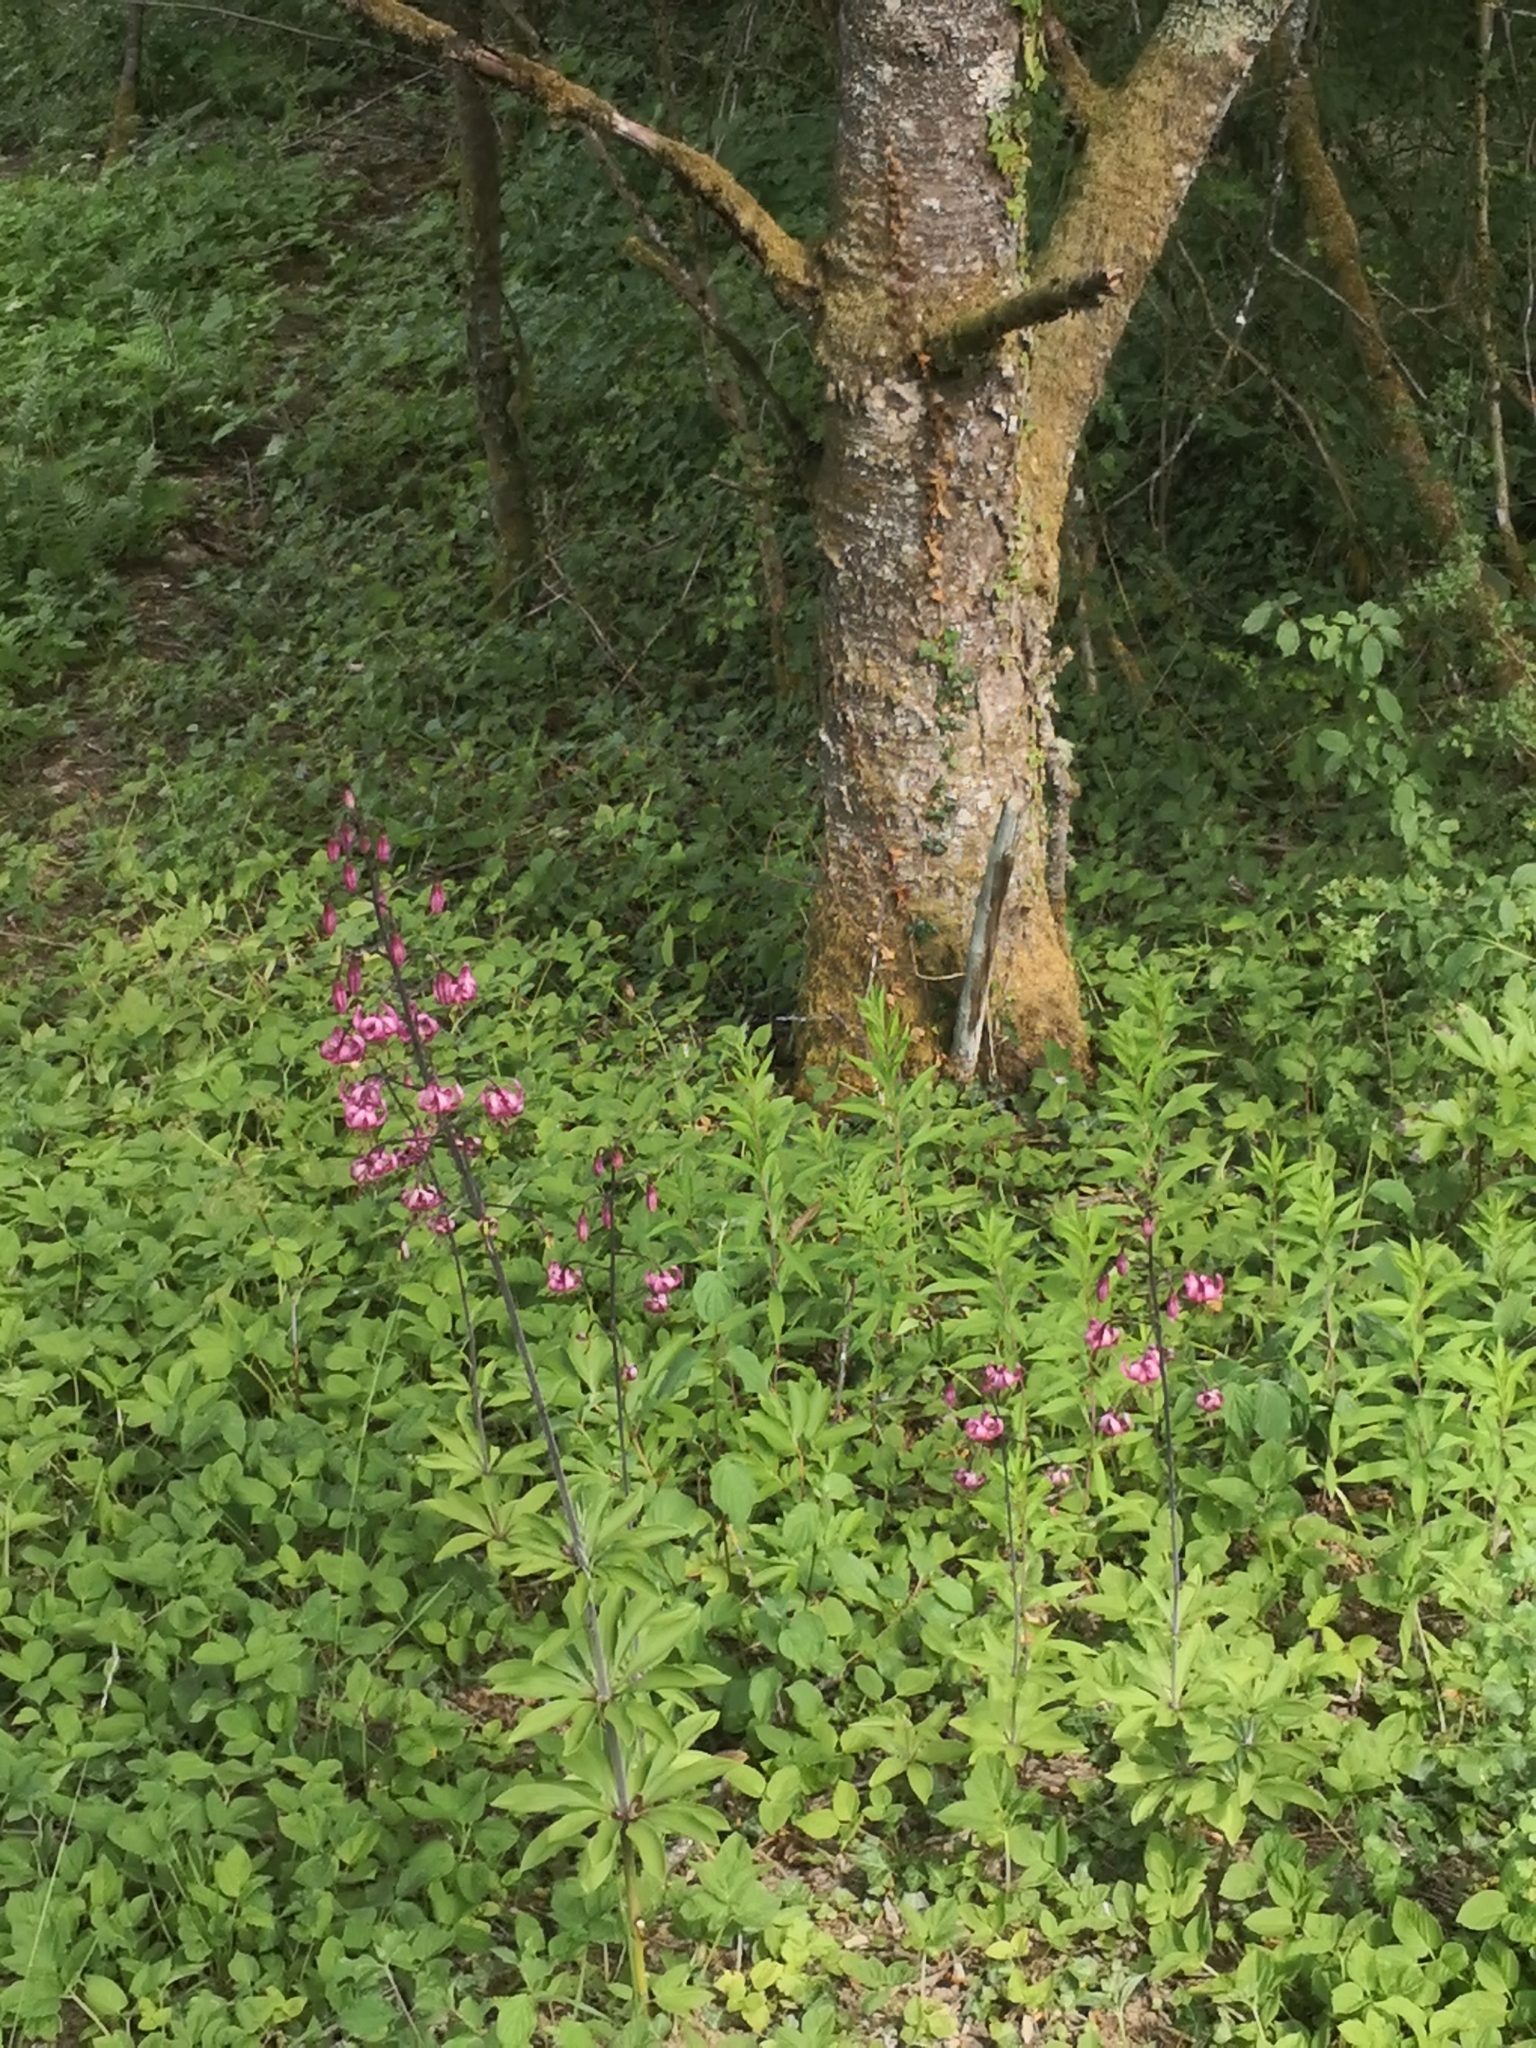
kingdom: Plantae
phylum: Tracheophyta
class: Liliopsida
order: Liliales
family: Liliaceae
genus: Lilium
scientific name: Lilium martagon
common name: Martagon lily
